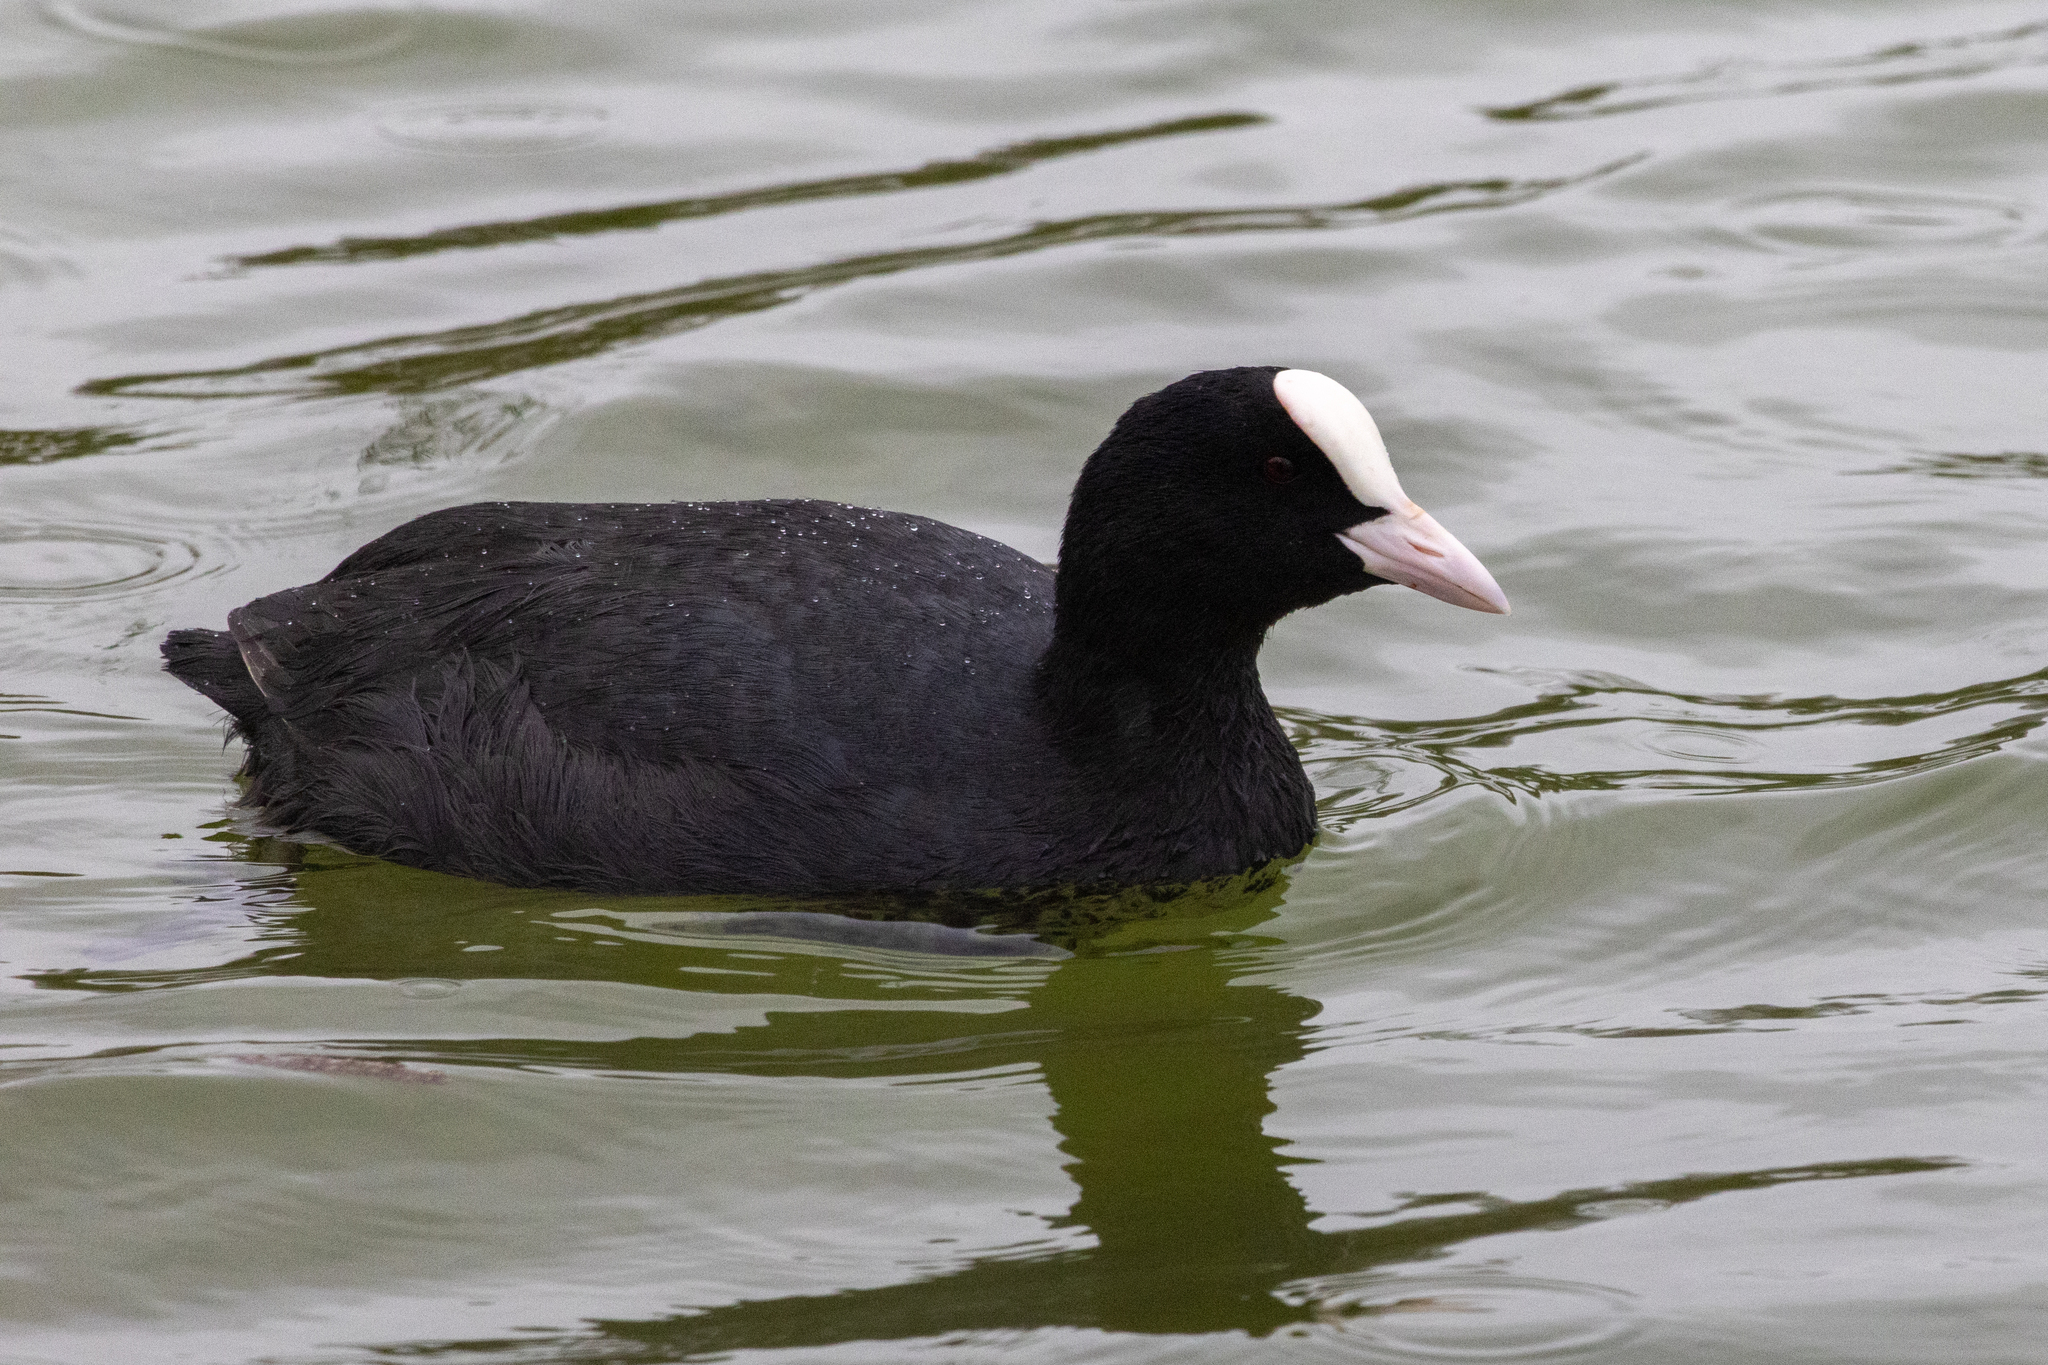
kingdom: Animalia
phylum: Chordata
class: Aves
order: Gruiformes
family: Rallidae
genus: Fulica
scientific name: Fulica atra
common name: Eurasian coot
